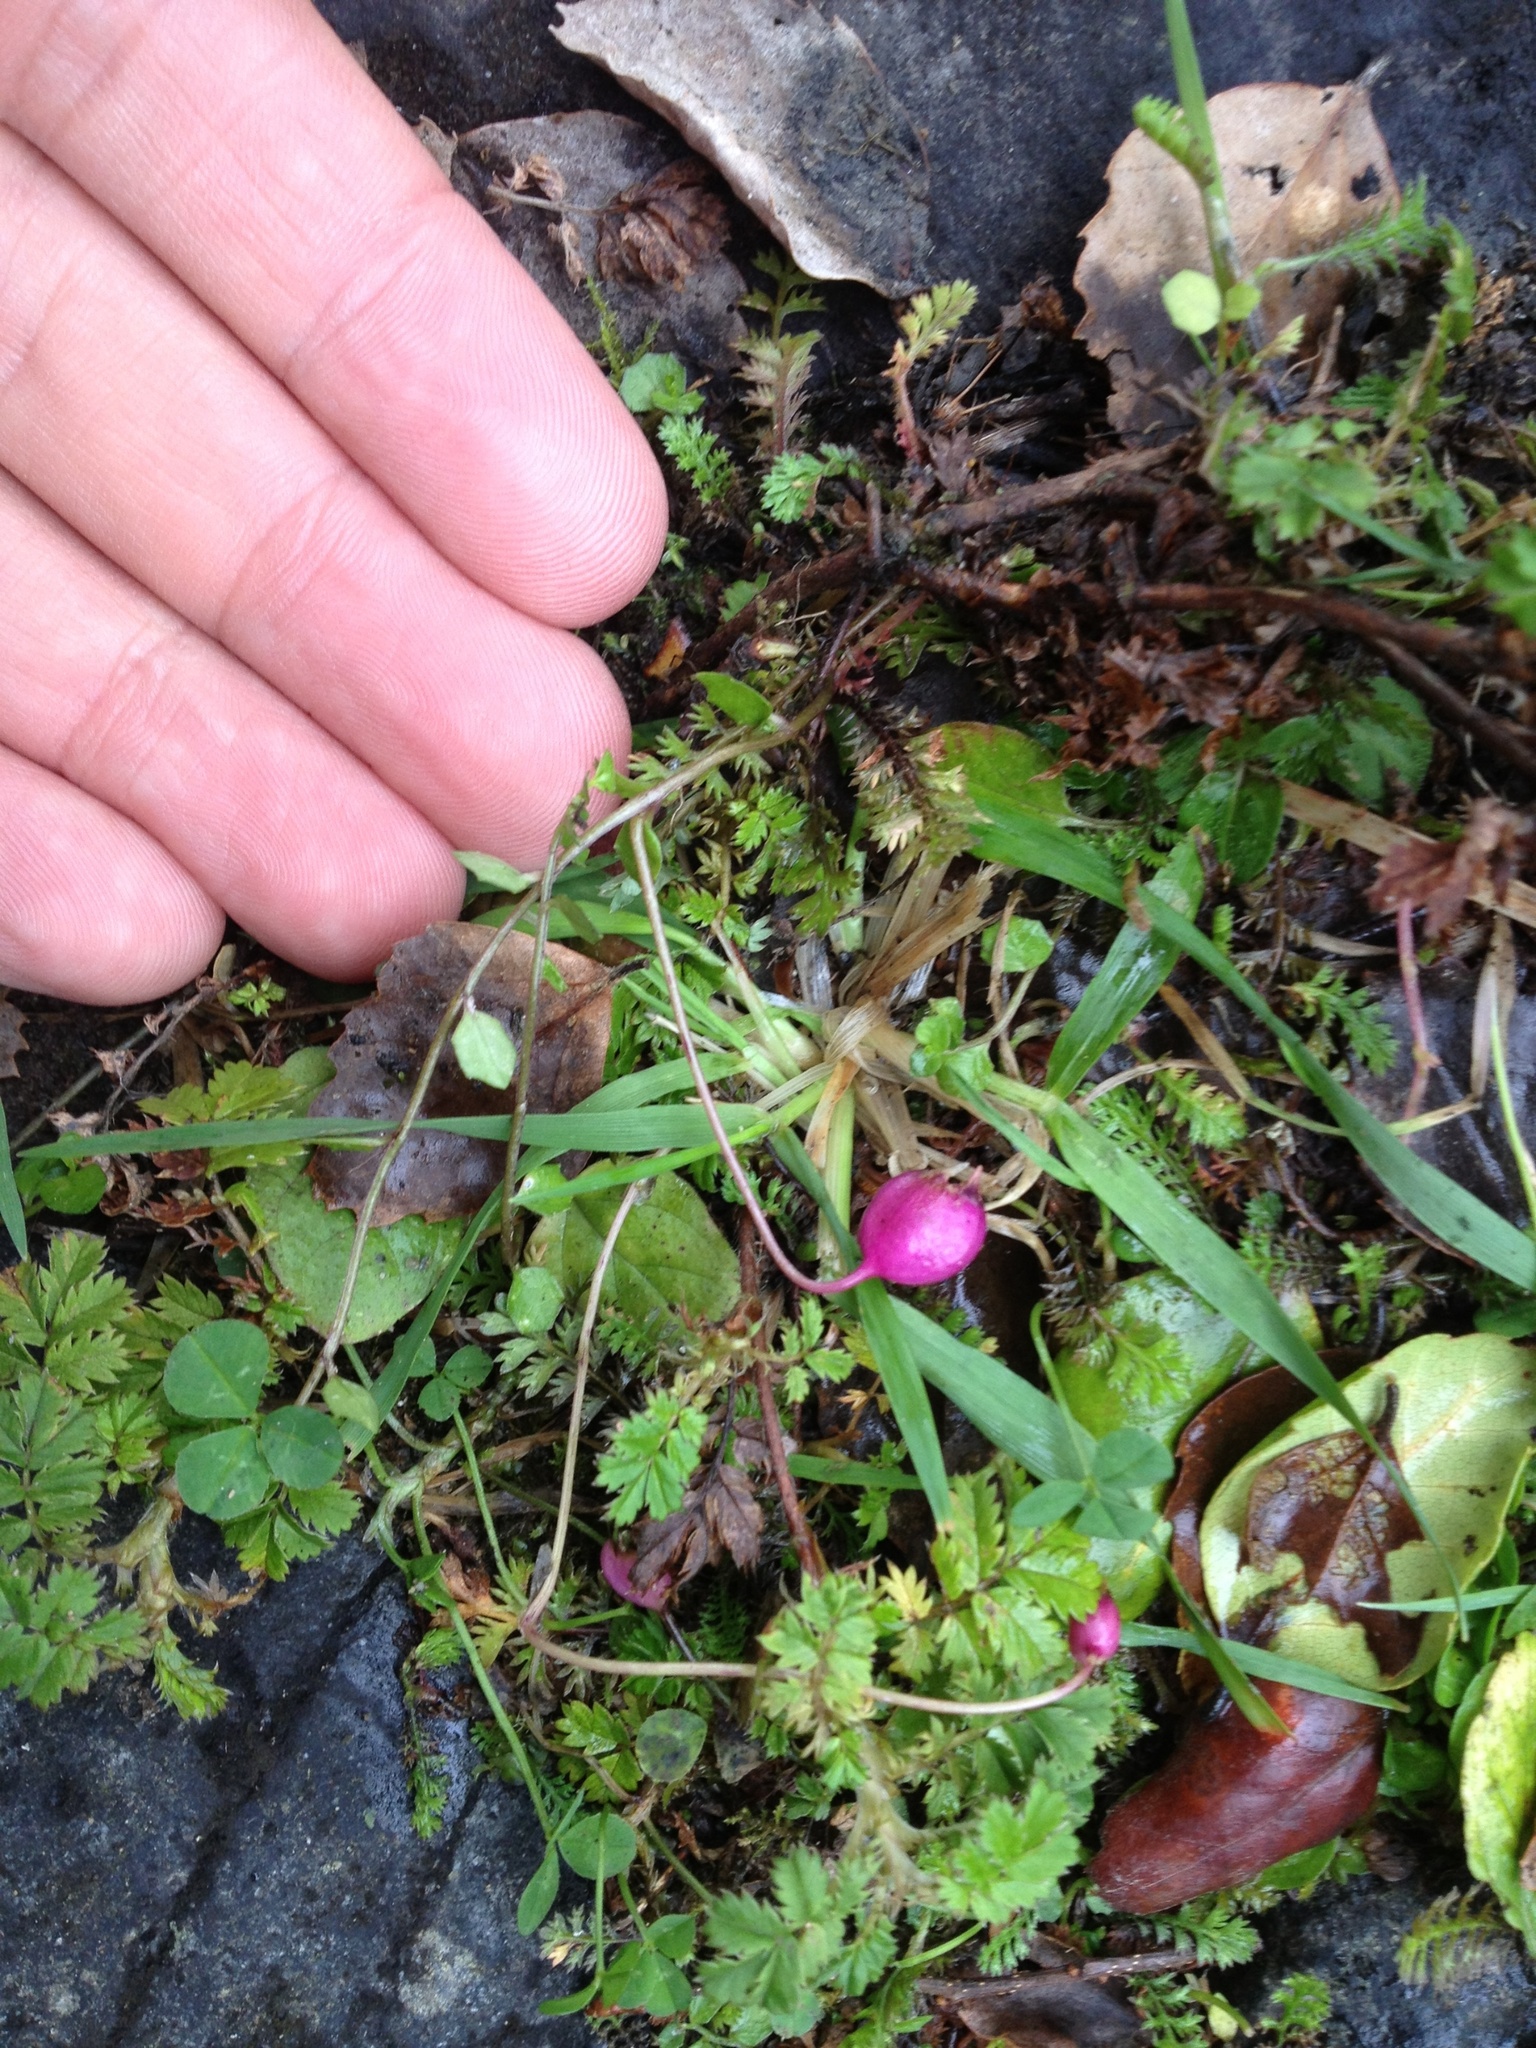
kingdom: Plantae
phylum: Tracheophyta
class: Magnoliopsida
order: Asterales
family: Campanulaceae
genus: Lobelia
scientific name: Lobelia angulata
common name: Lawn lobelia
